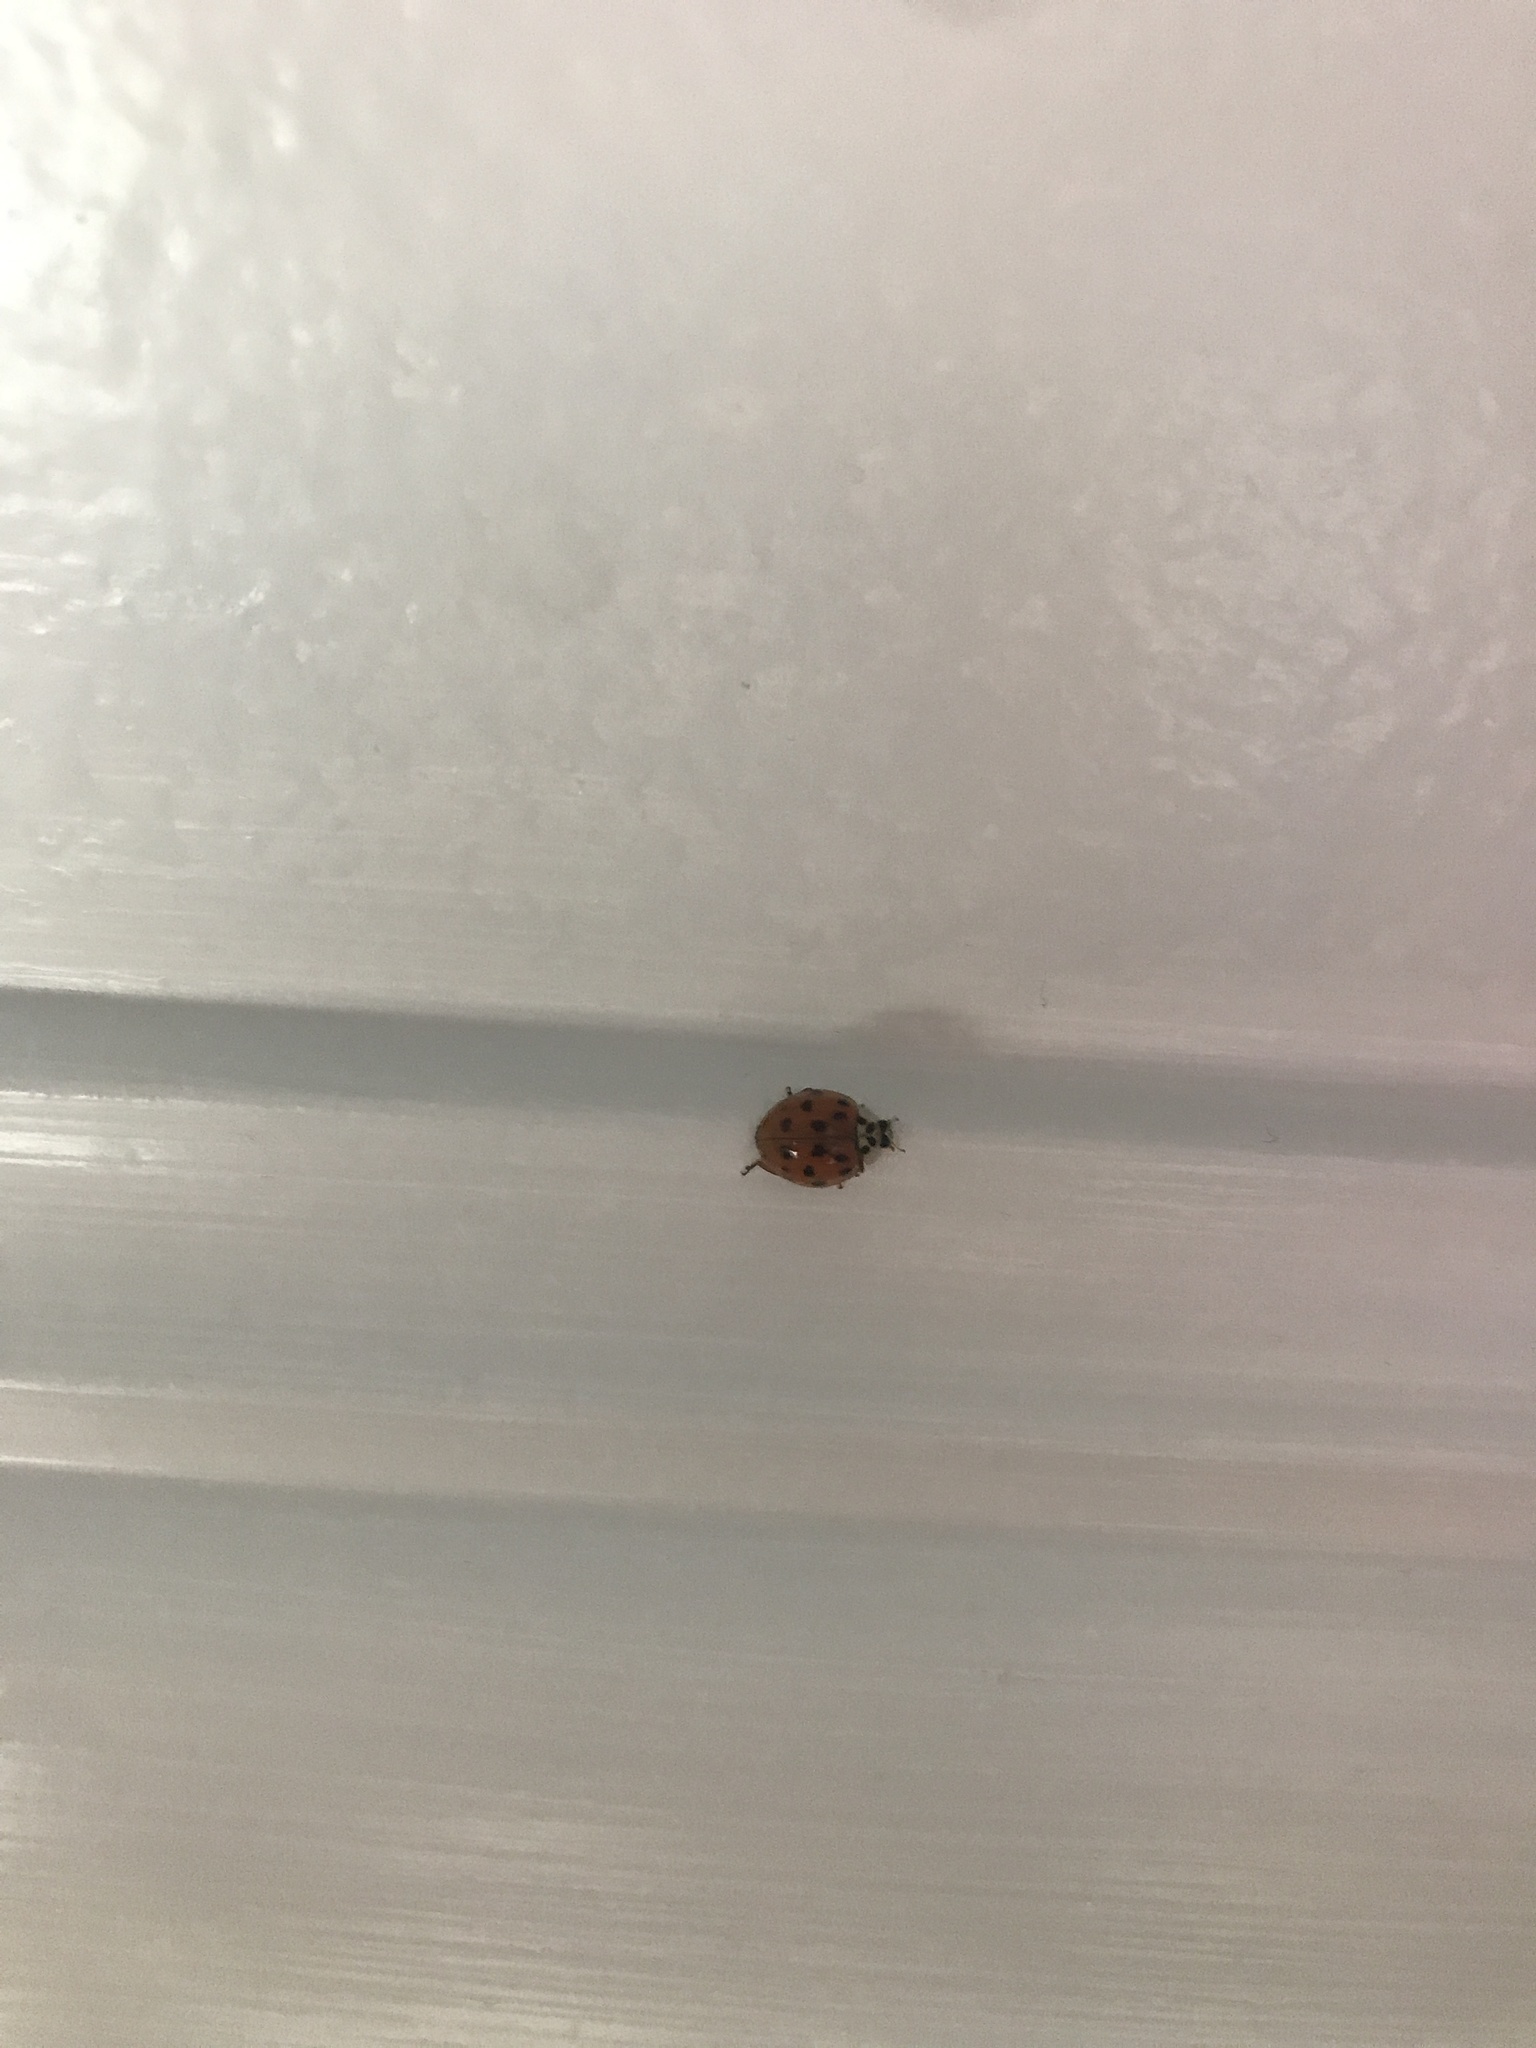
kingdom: Animalia
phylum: Arthropoda
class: Insecta
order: Coleoptera
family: Coccinellidae
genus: Harmonia
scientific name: Harmonia axyridis
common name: Harlequin ladybird
